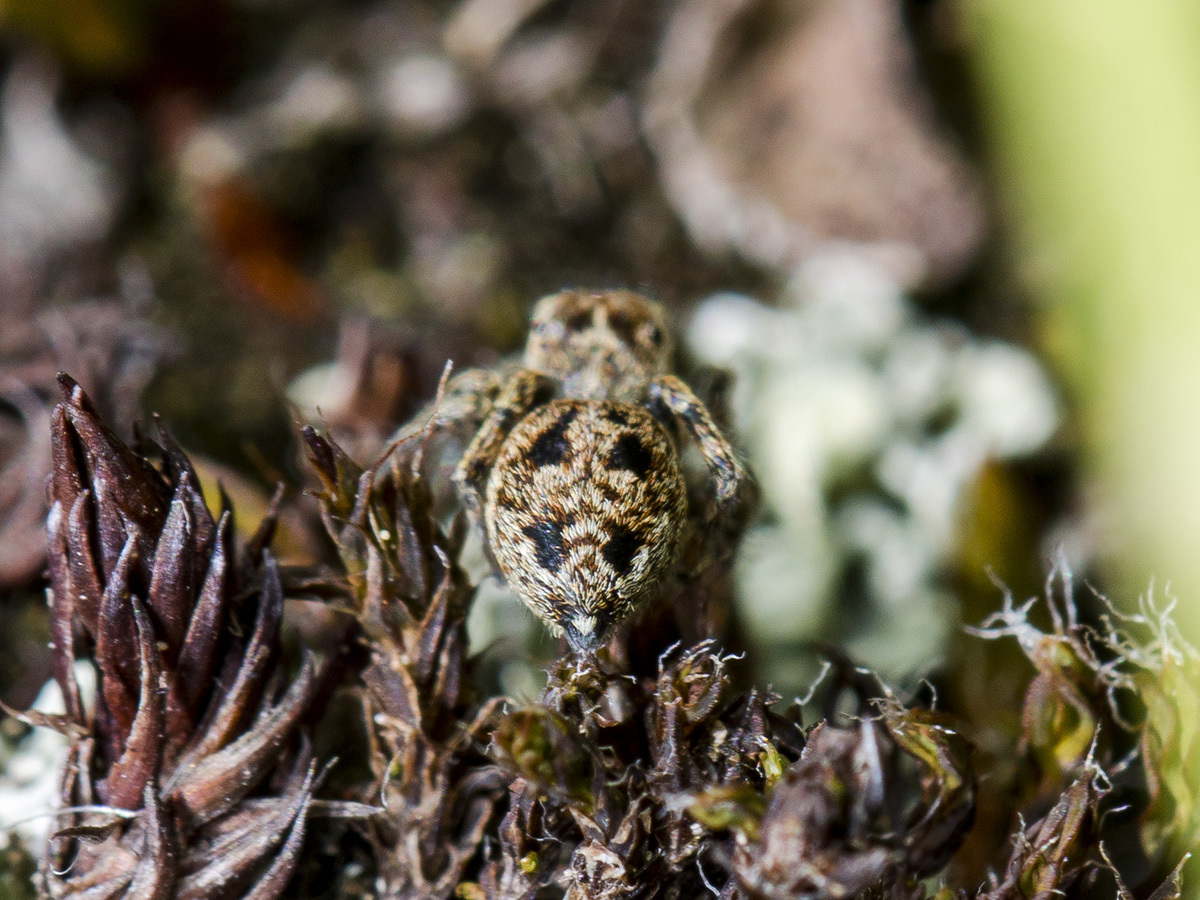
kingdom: Animalia
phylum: Arthropoda
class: Arachnida
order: Araneae
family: Salticidae
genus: Attulus
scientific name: Attulus talgarensis
